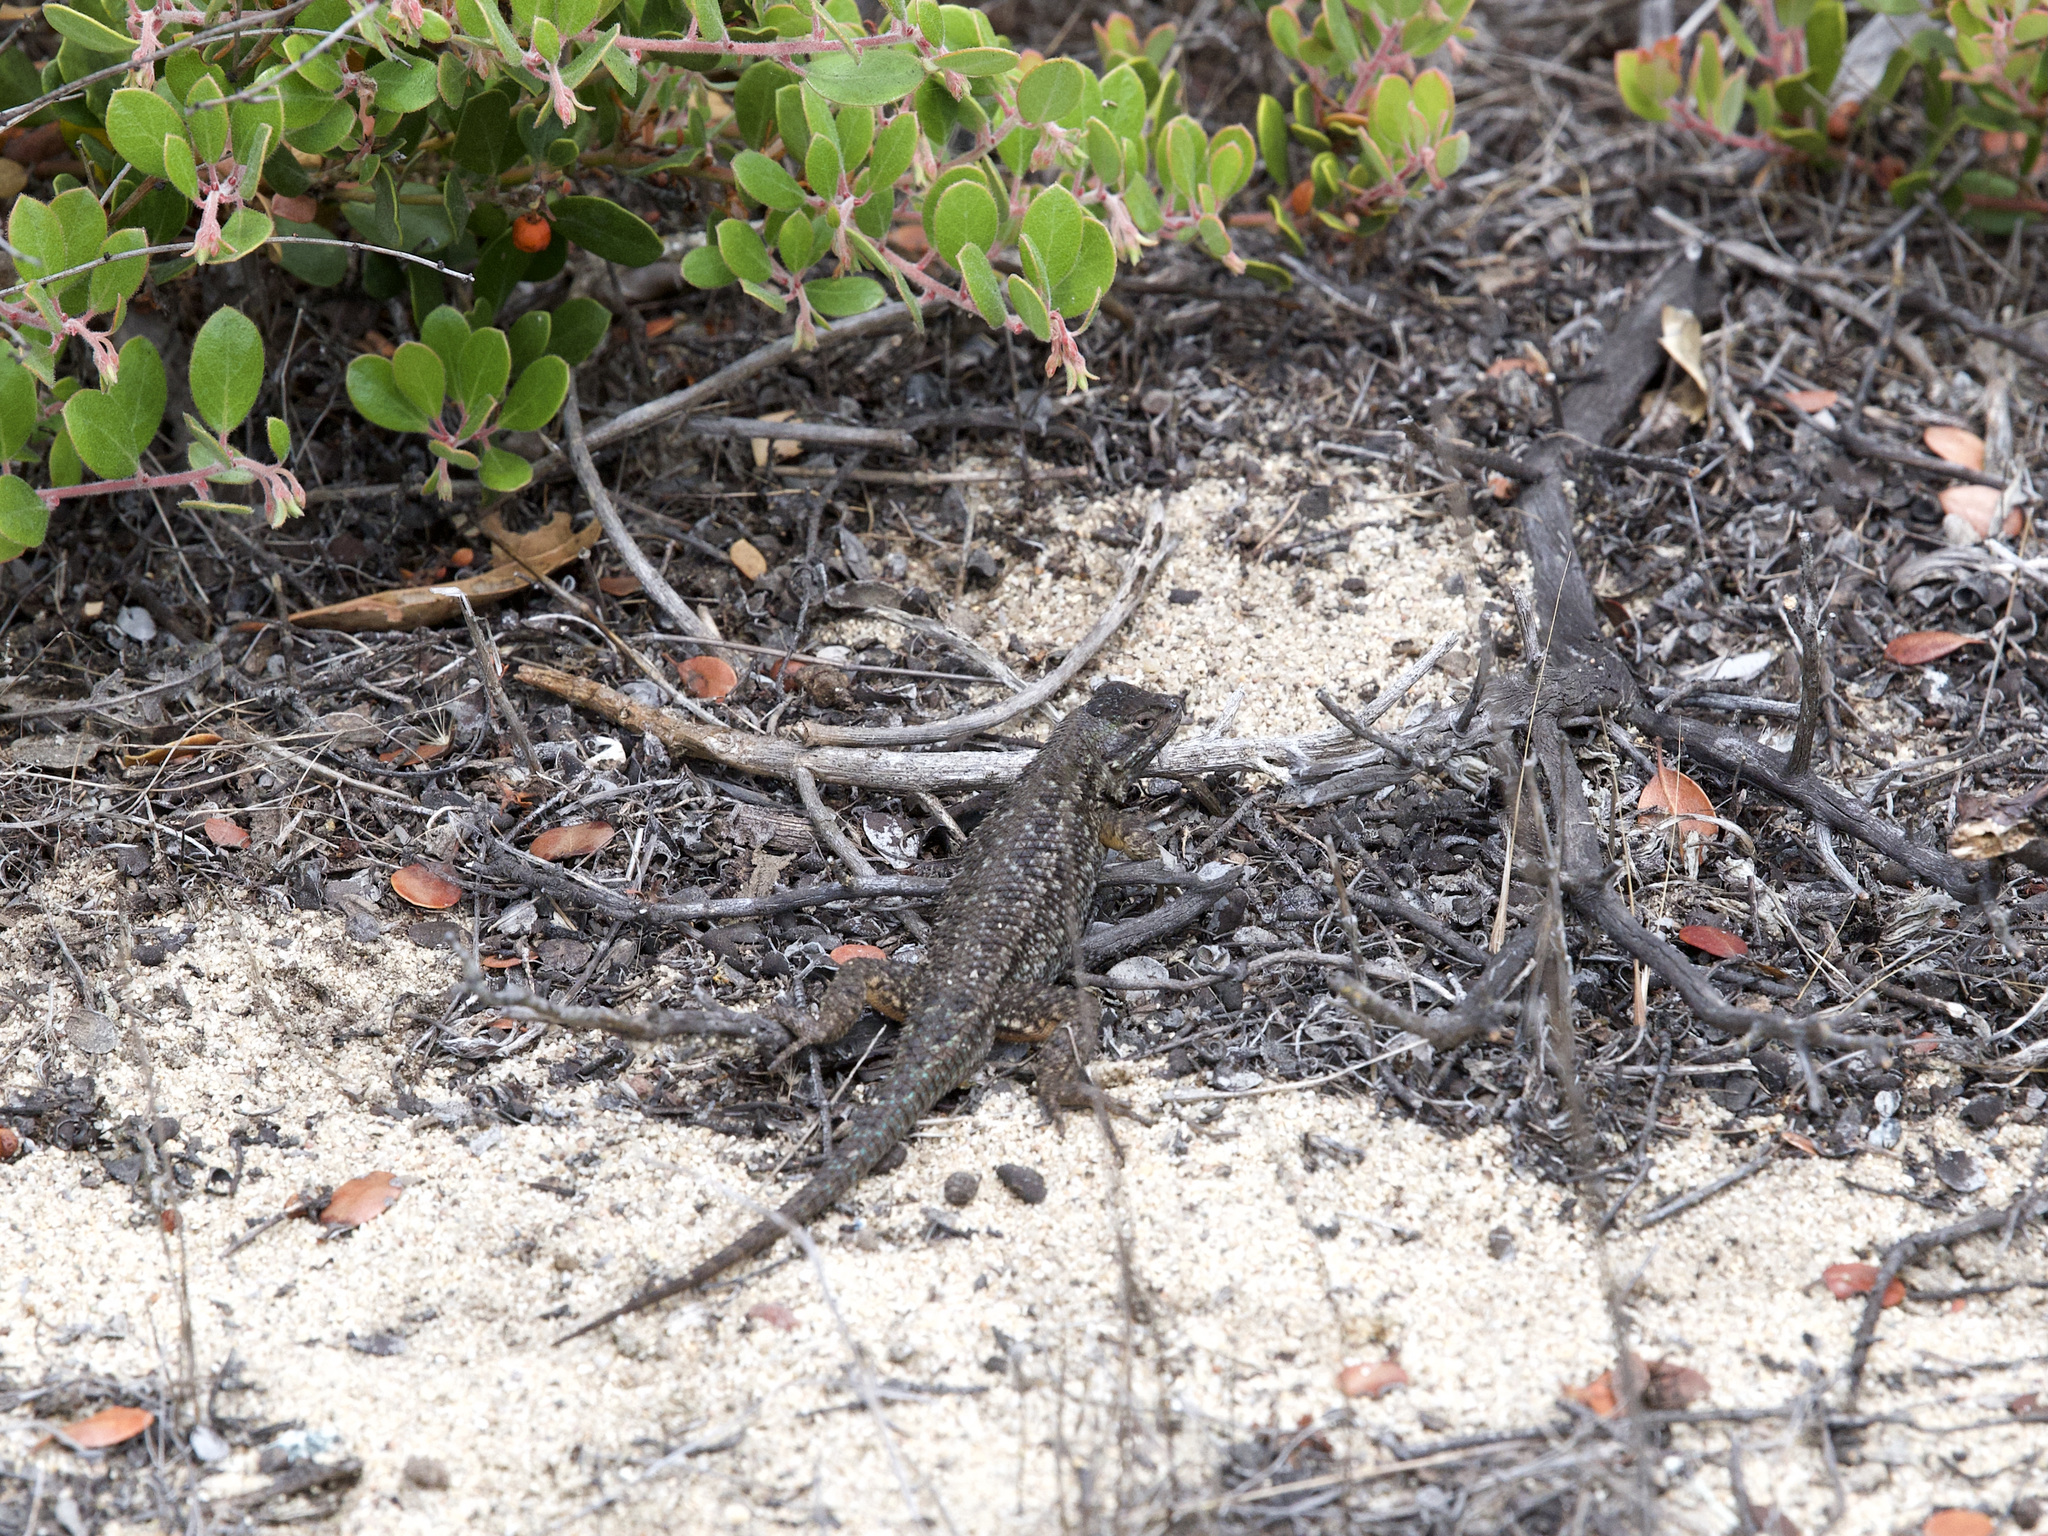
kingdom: Animalia
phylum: Chordata
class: Squamata
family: Phrynosomatidae
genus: Sceloporus
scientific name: Sceloporus occidentalis
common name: Western fence lizard
